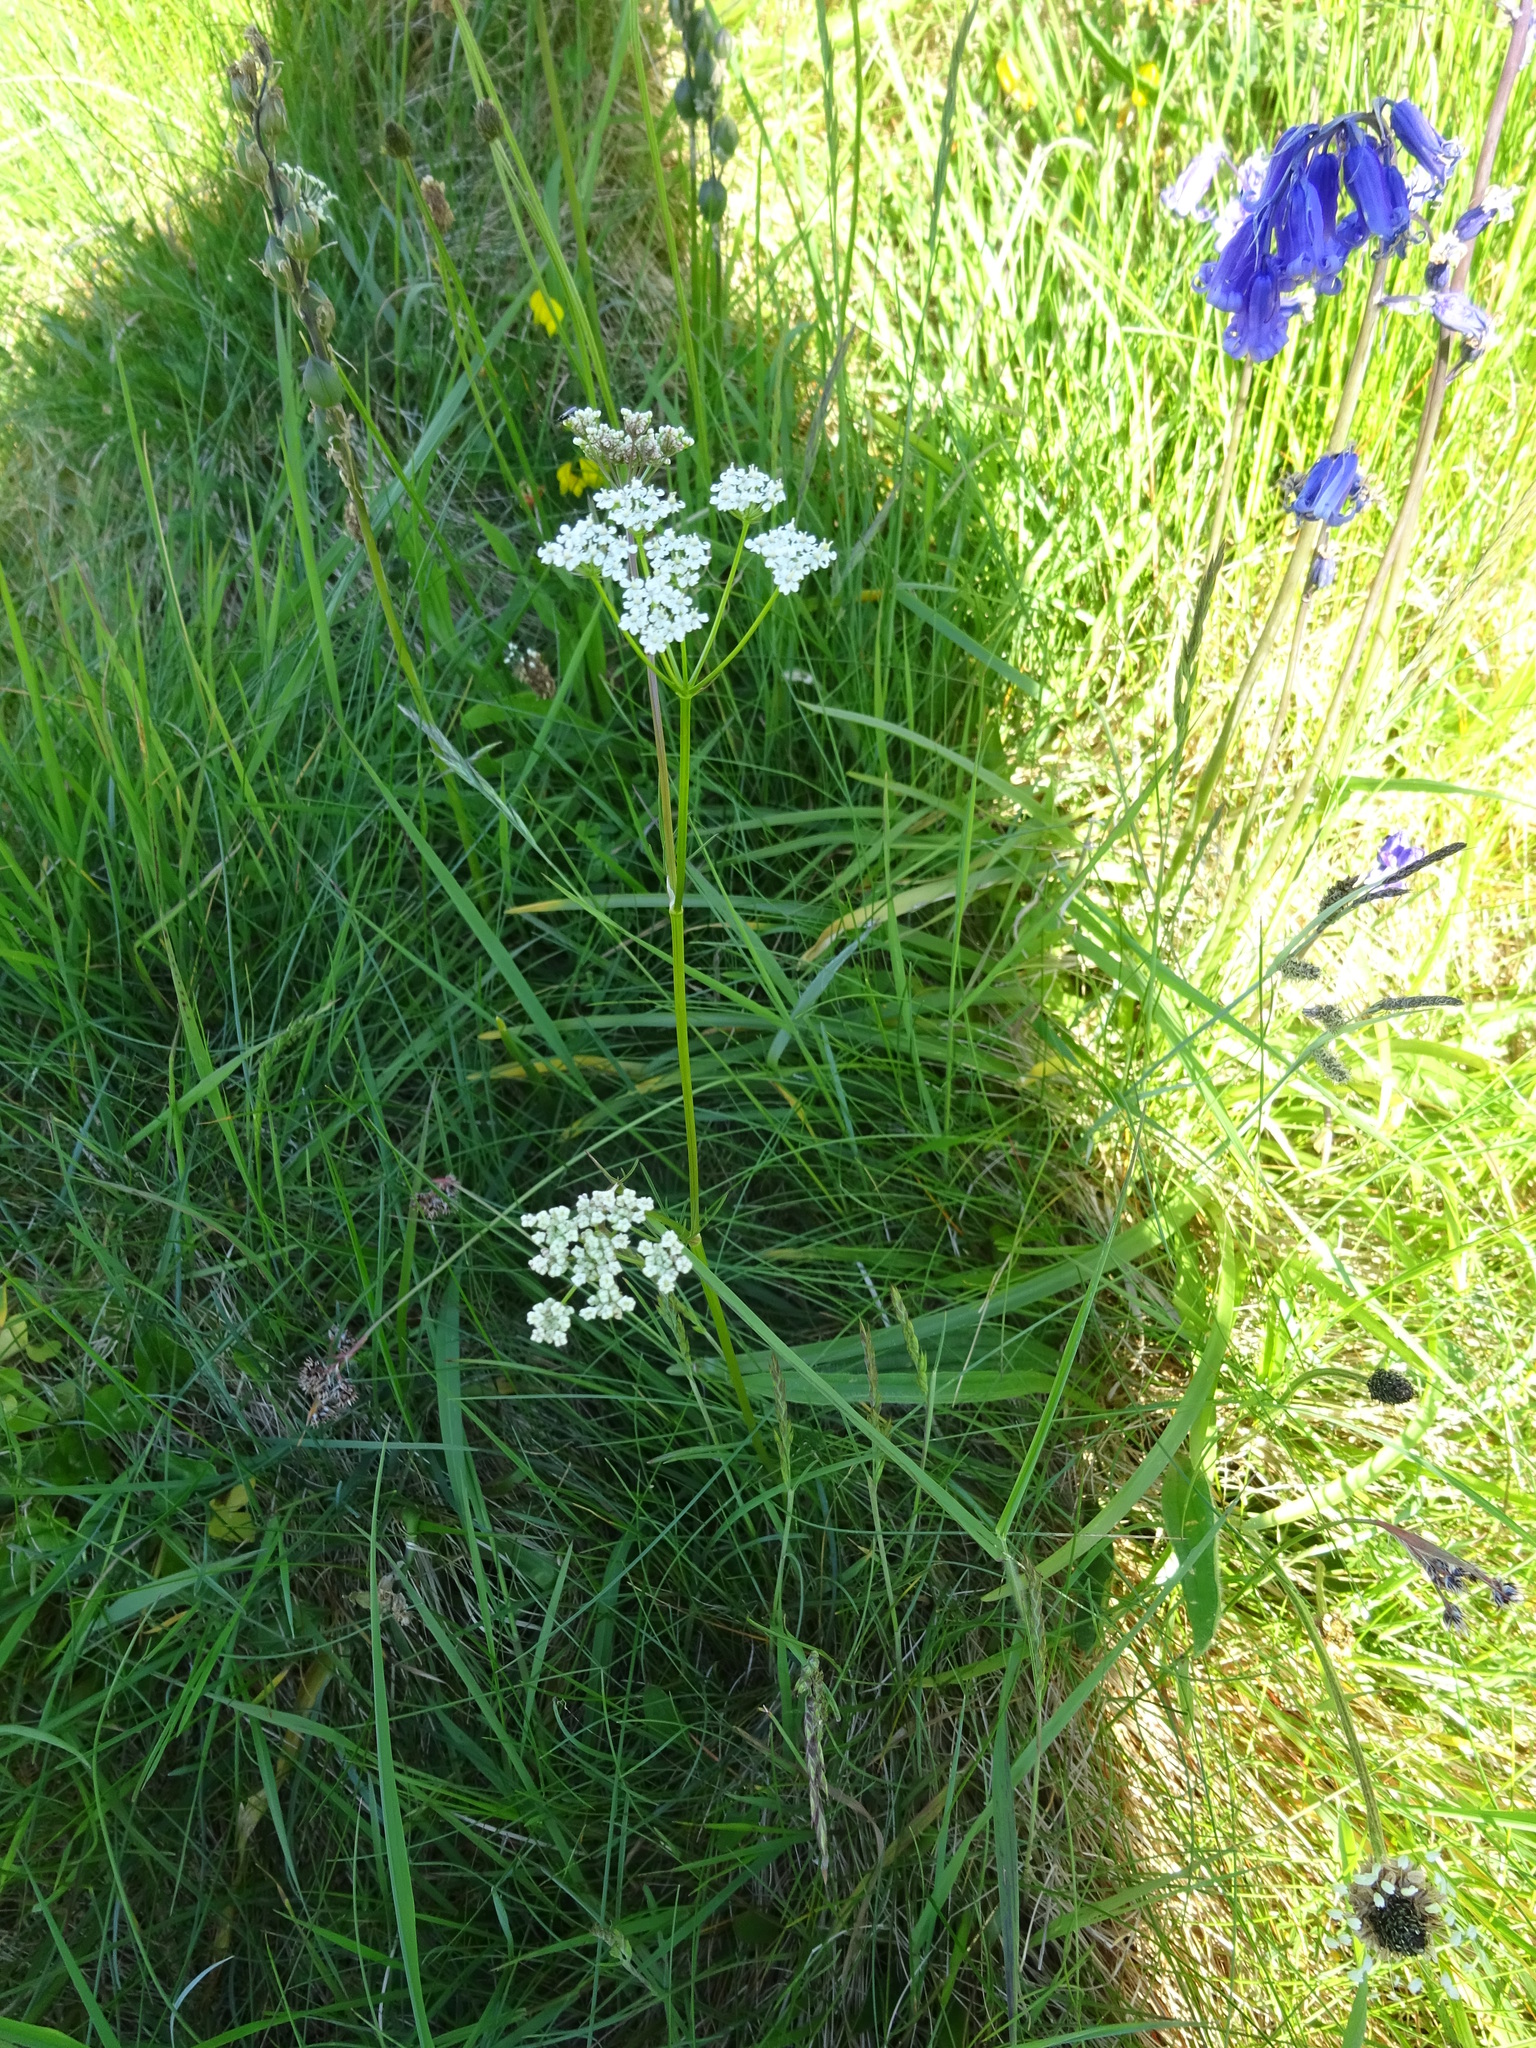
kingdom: Plantae
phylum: Tracheophyta
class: Magnoliopsida
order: Apiales
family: Apiaceae
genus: Conopodium
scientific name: Conopodium majus
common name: Pignut
